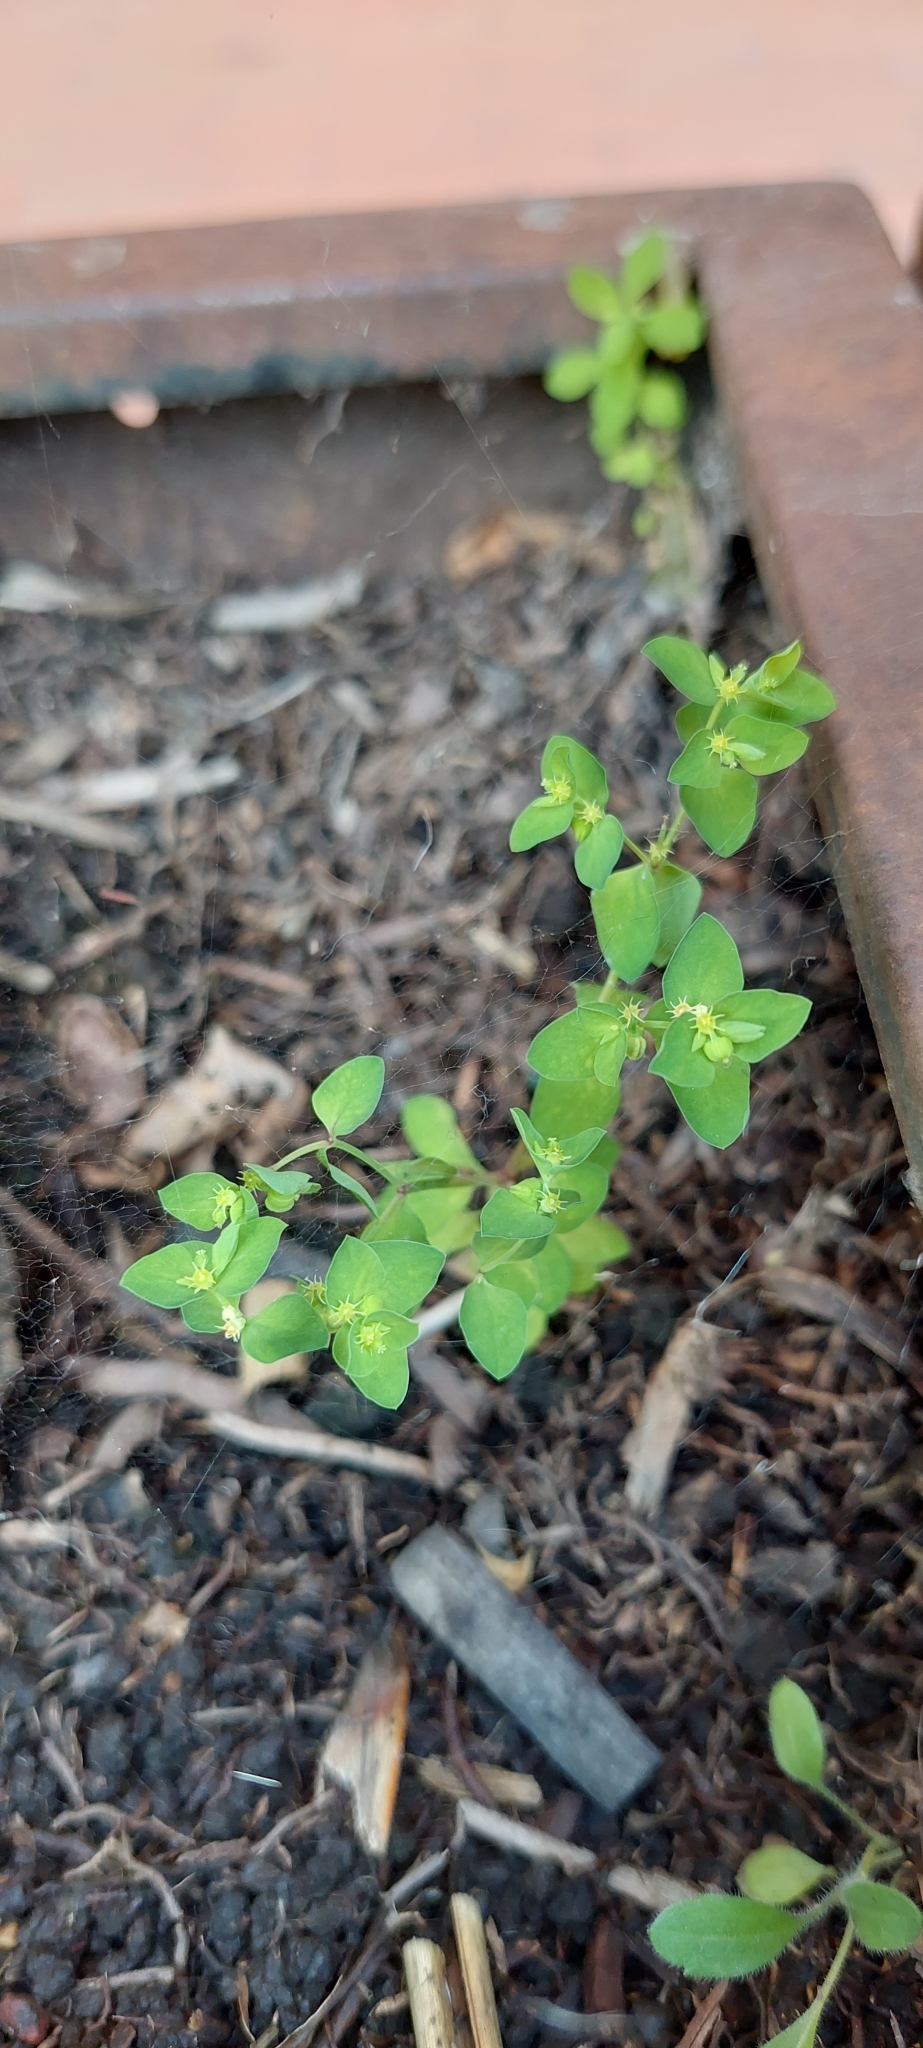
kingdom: Plantae
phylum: Tracheophyta
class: Magnoliopsida
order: Malpighiales
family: Euphorbiaceae
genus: Euphorbia
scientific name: Euphorbia peplus
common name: Petty spurge
